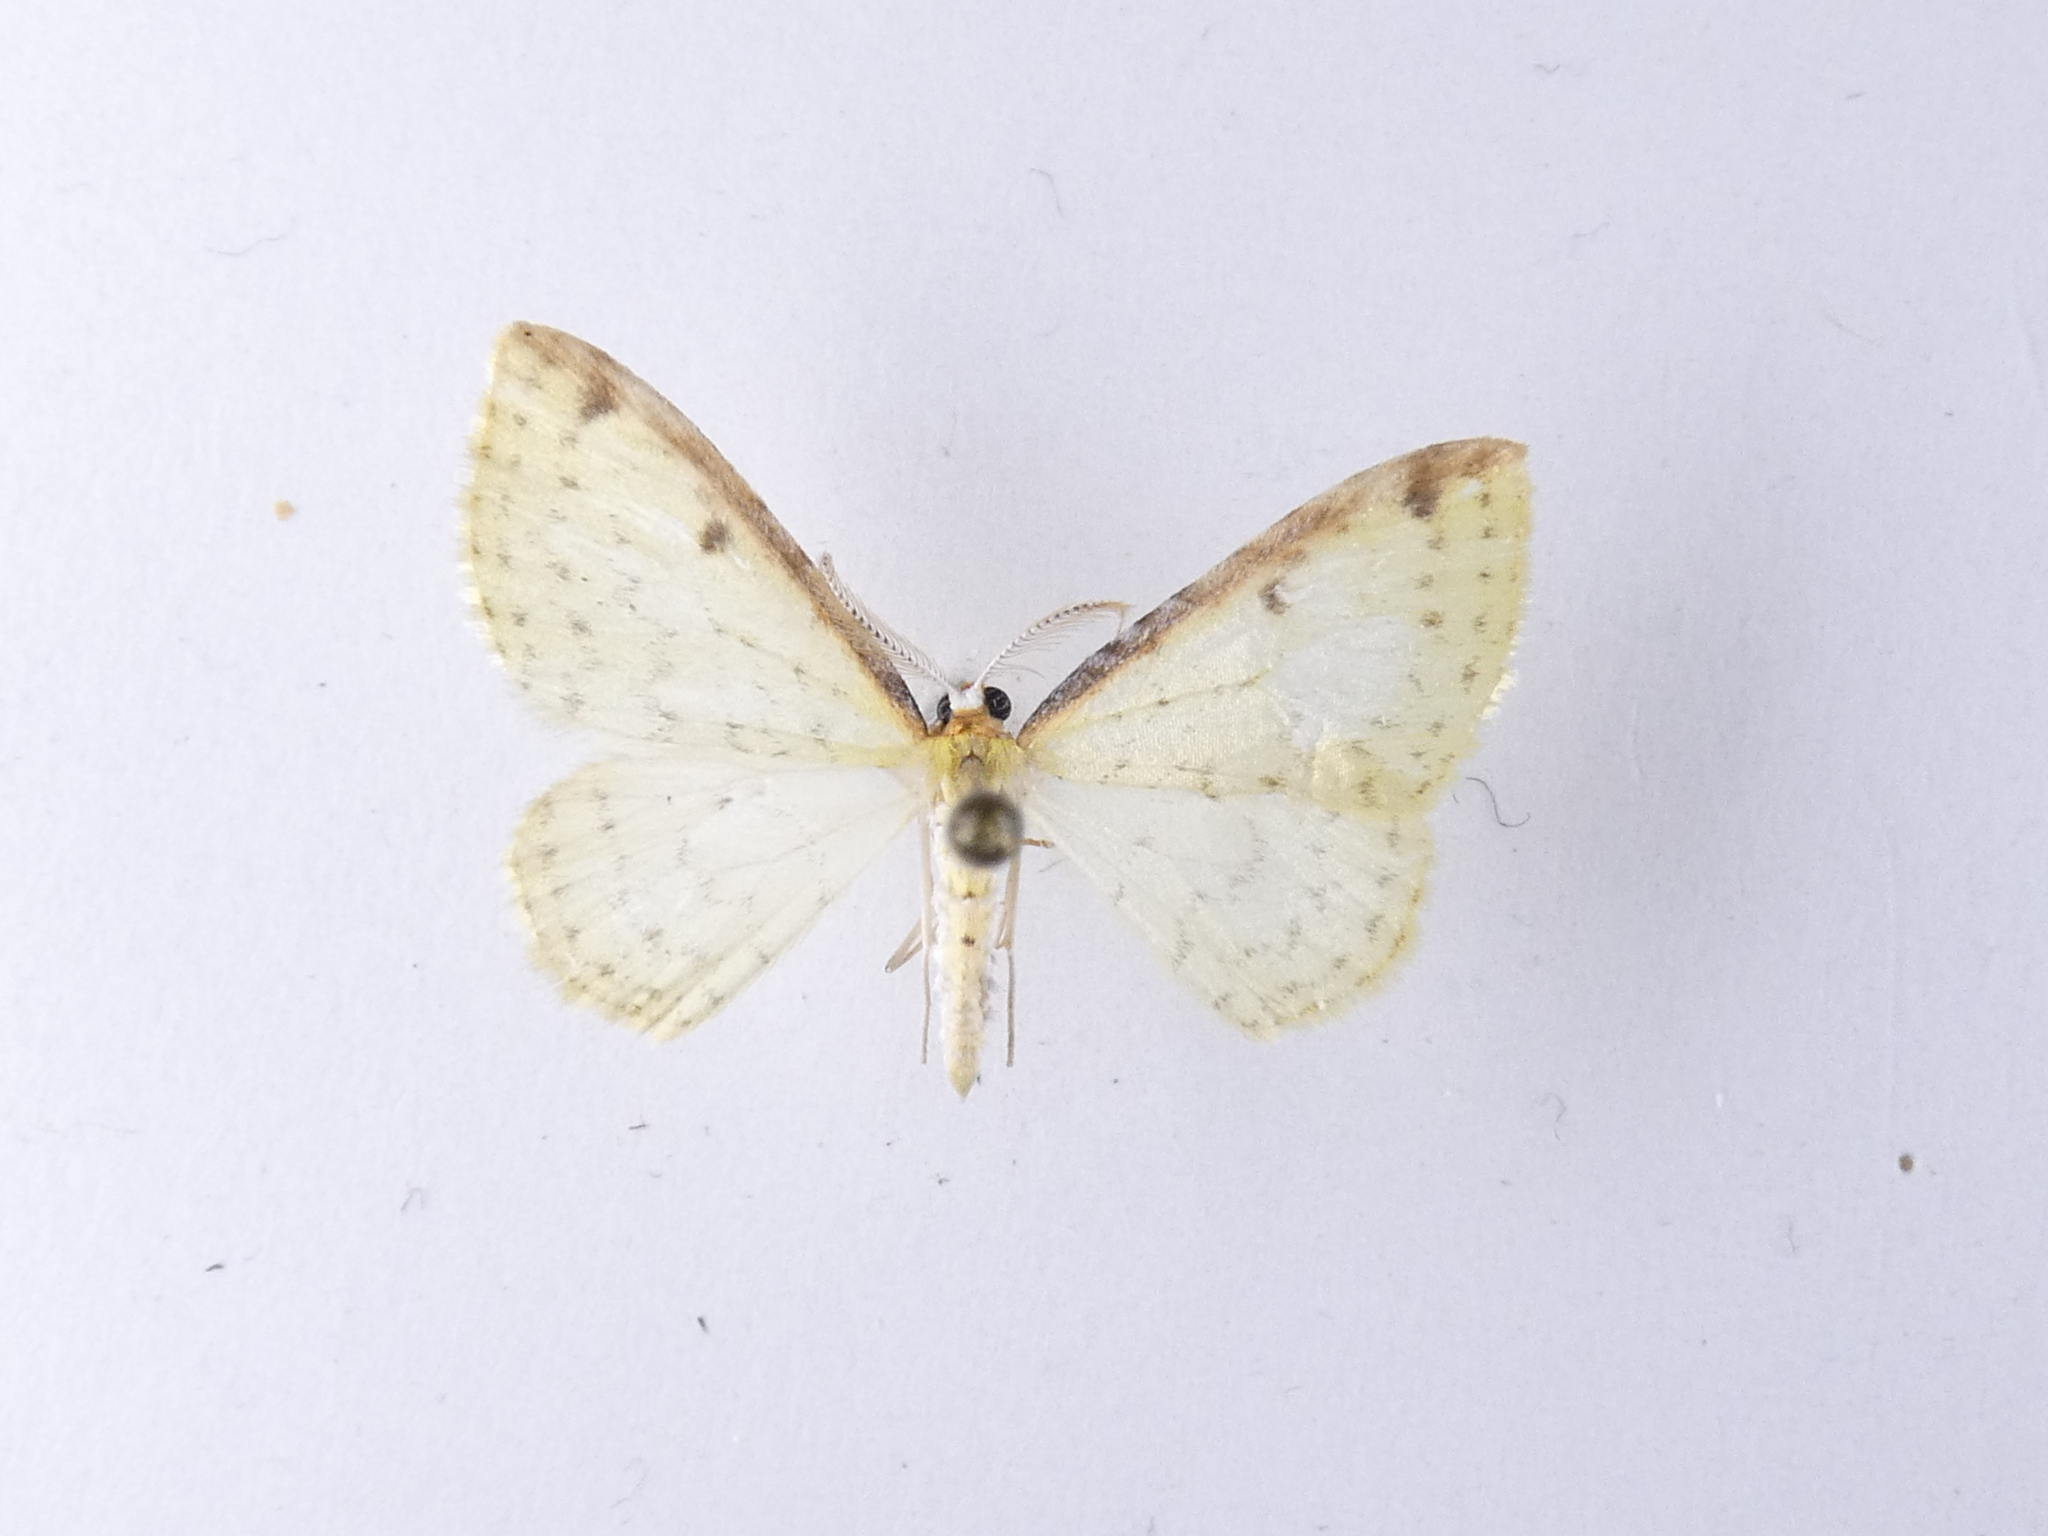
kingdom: Animalia
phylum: Arthropoda
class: Insecta
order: Lepidoptera
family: Geometridae
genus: Epiphryne
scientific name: Epiphryne undosata
